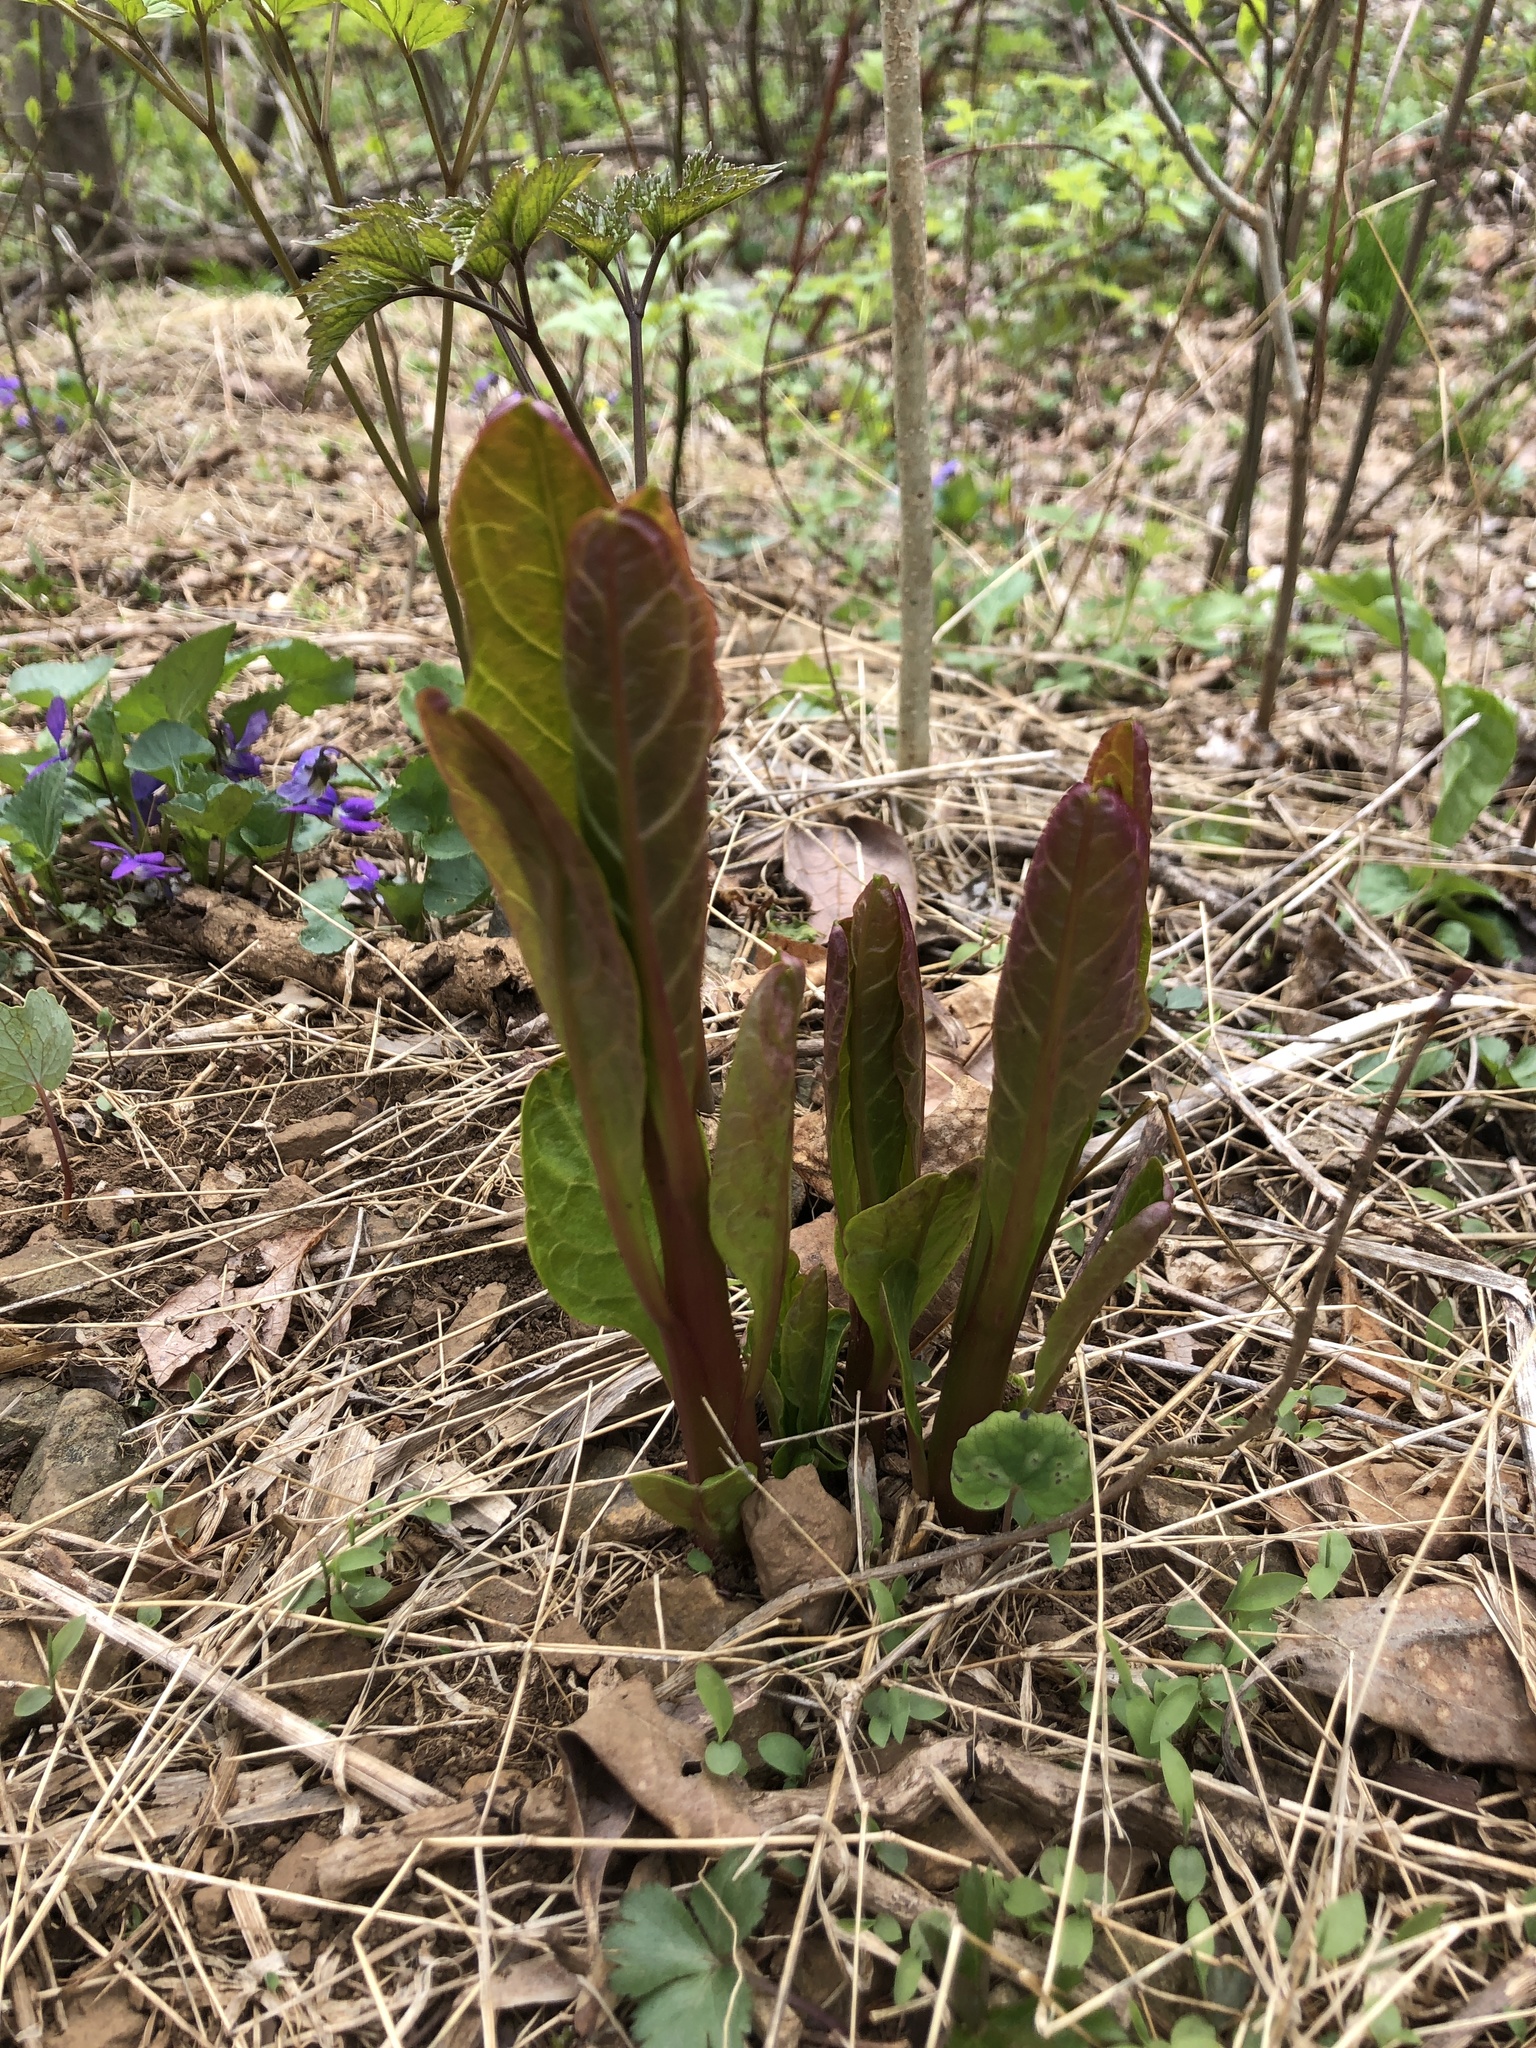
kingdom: Plantae
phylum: Tracheophyta
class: Magnoliopsida
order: Caryophyllales
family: Phytolaccaceae
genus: Phytolacca
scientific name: Phytolacca americana
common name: American pokeweed
